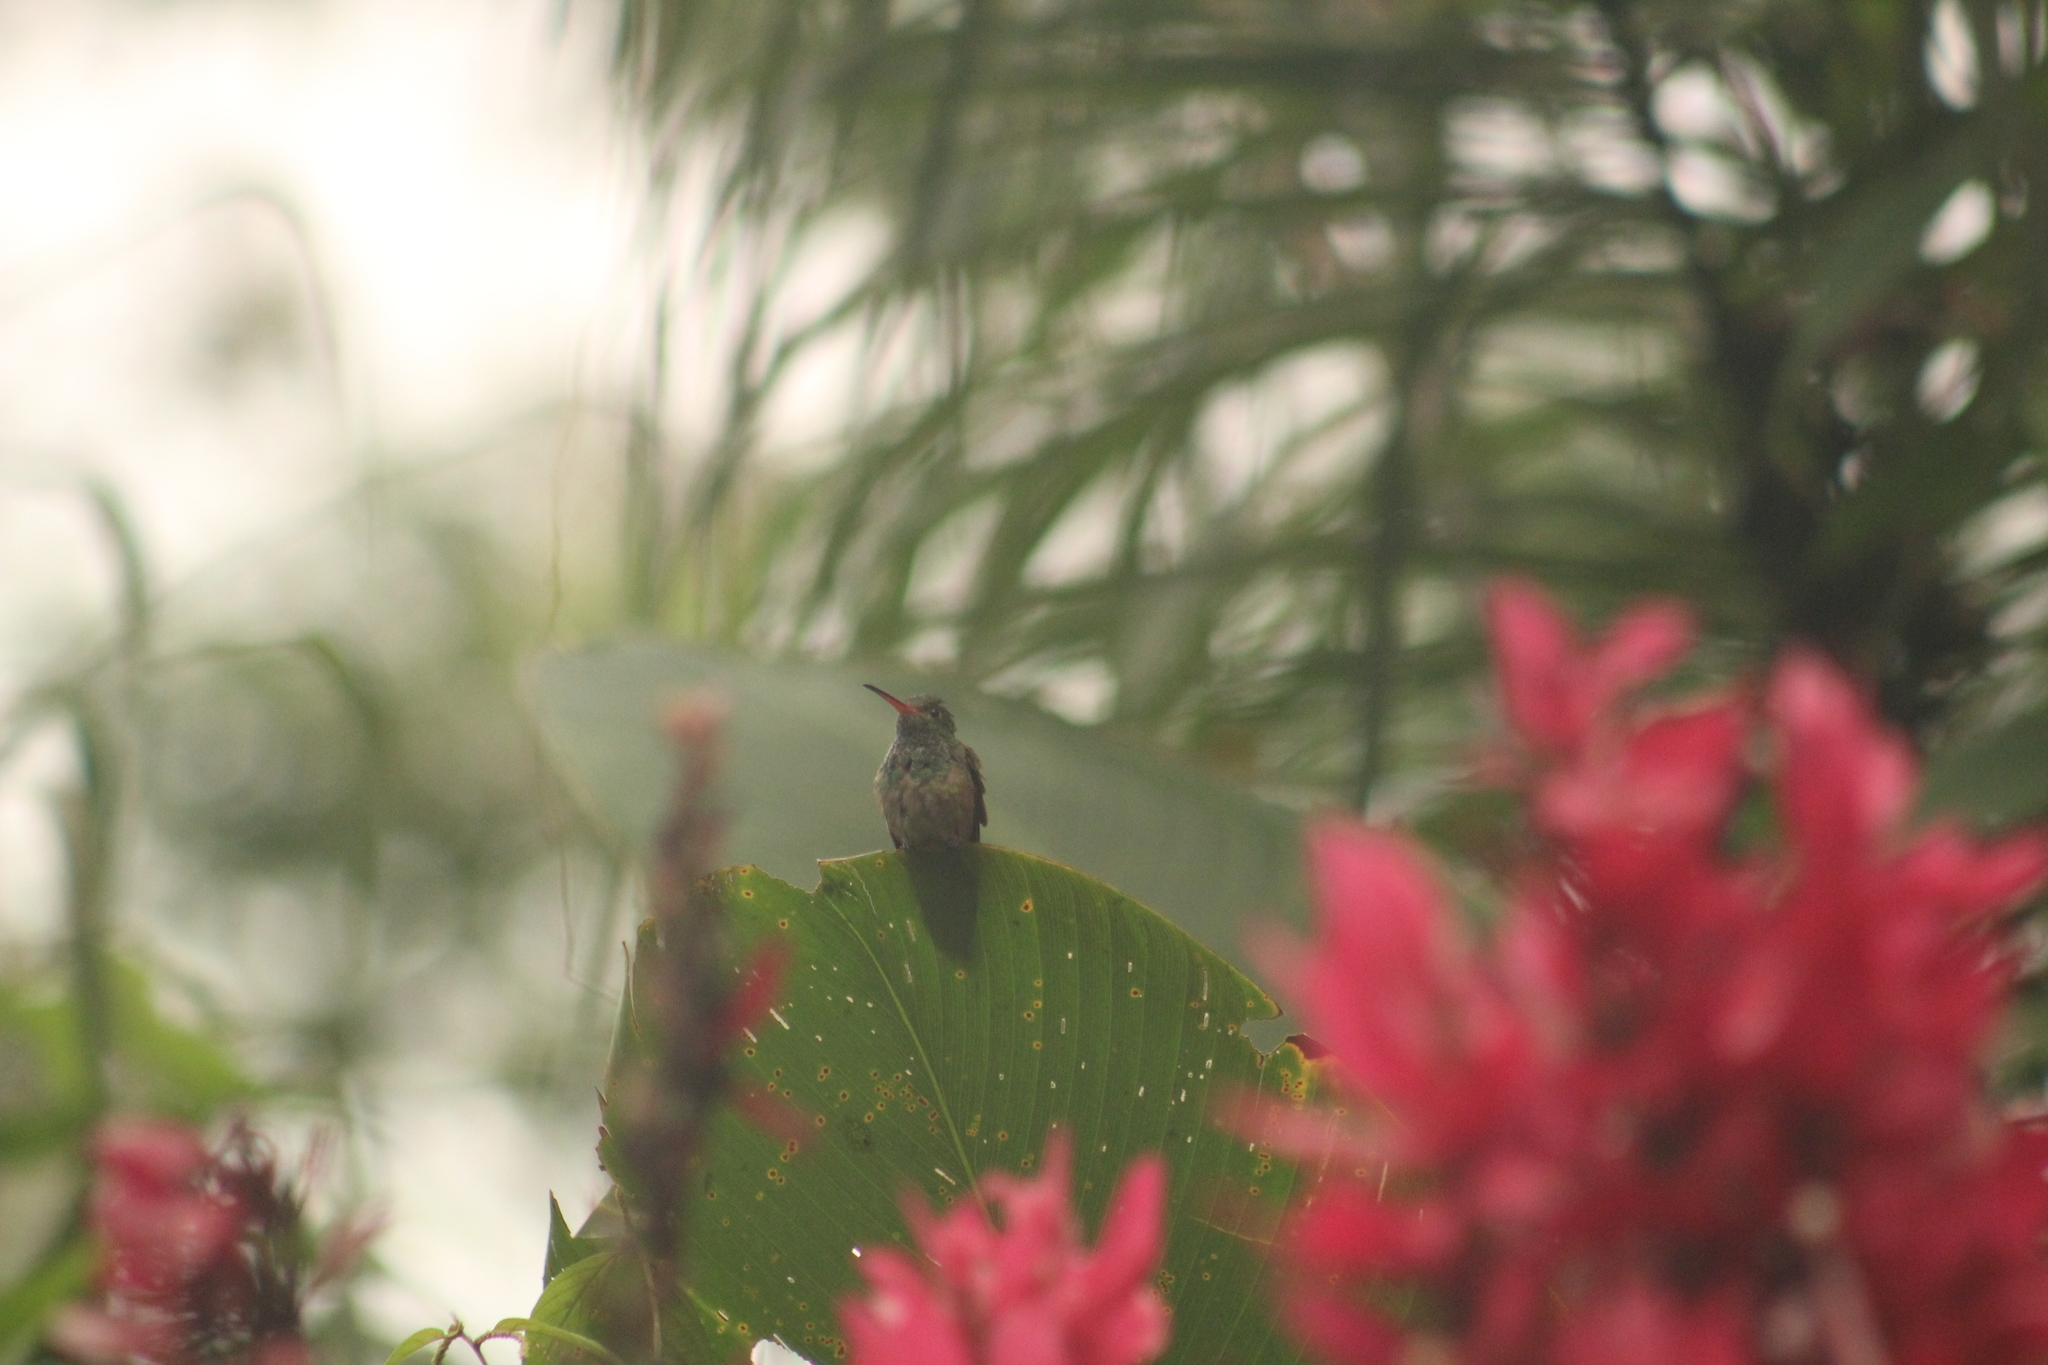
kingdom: Animalia
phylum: Chordata
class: Aves
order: Apodiformes
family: Trochilidae
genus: Amazilia
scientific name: Amazilia tzacatl
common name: Rufous-tailed hummingbird
